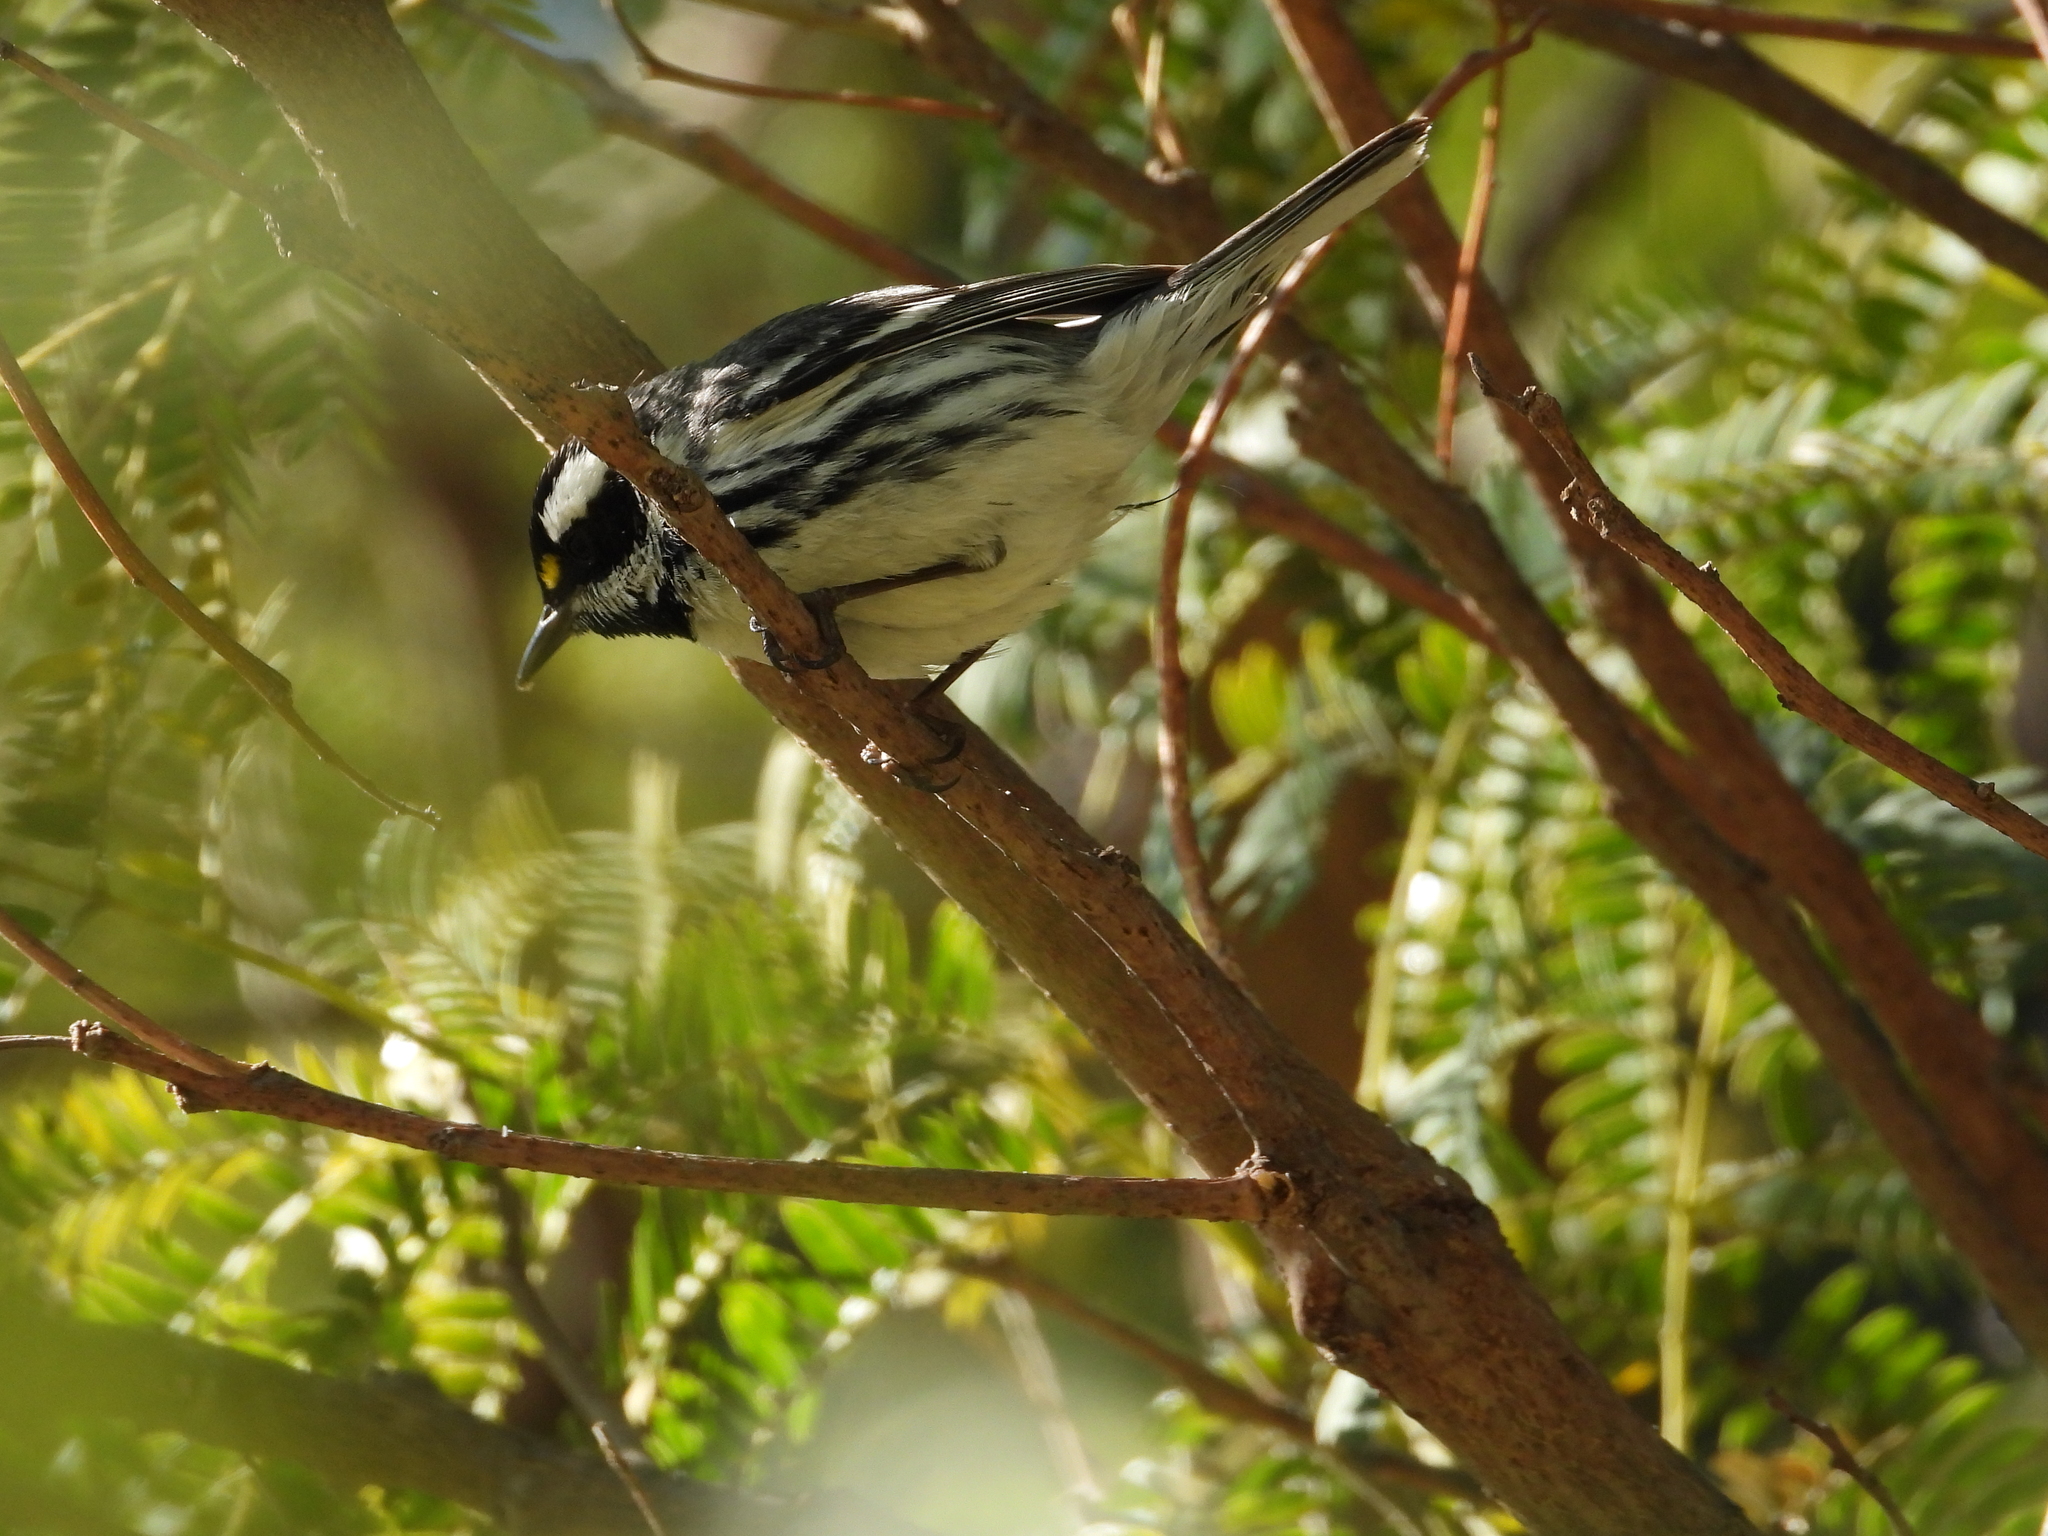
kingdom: Animalia
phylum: Chordata
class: Aves
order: Passeriformes
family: Parulidae
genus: Setophaga
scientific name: Setophaga nigrescens
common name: Black-throated gray warbler
